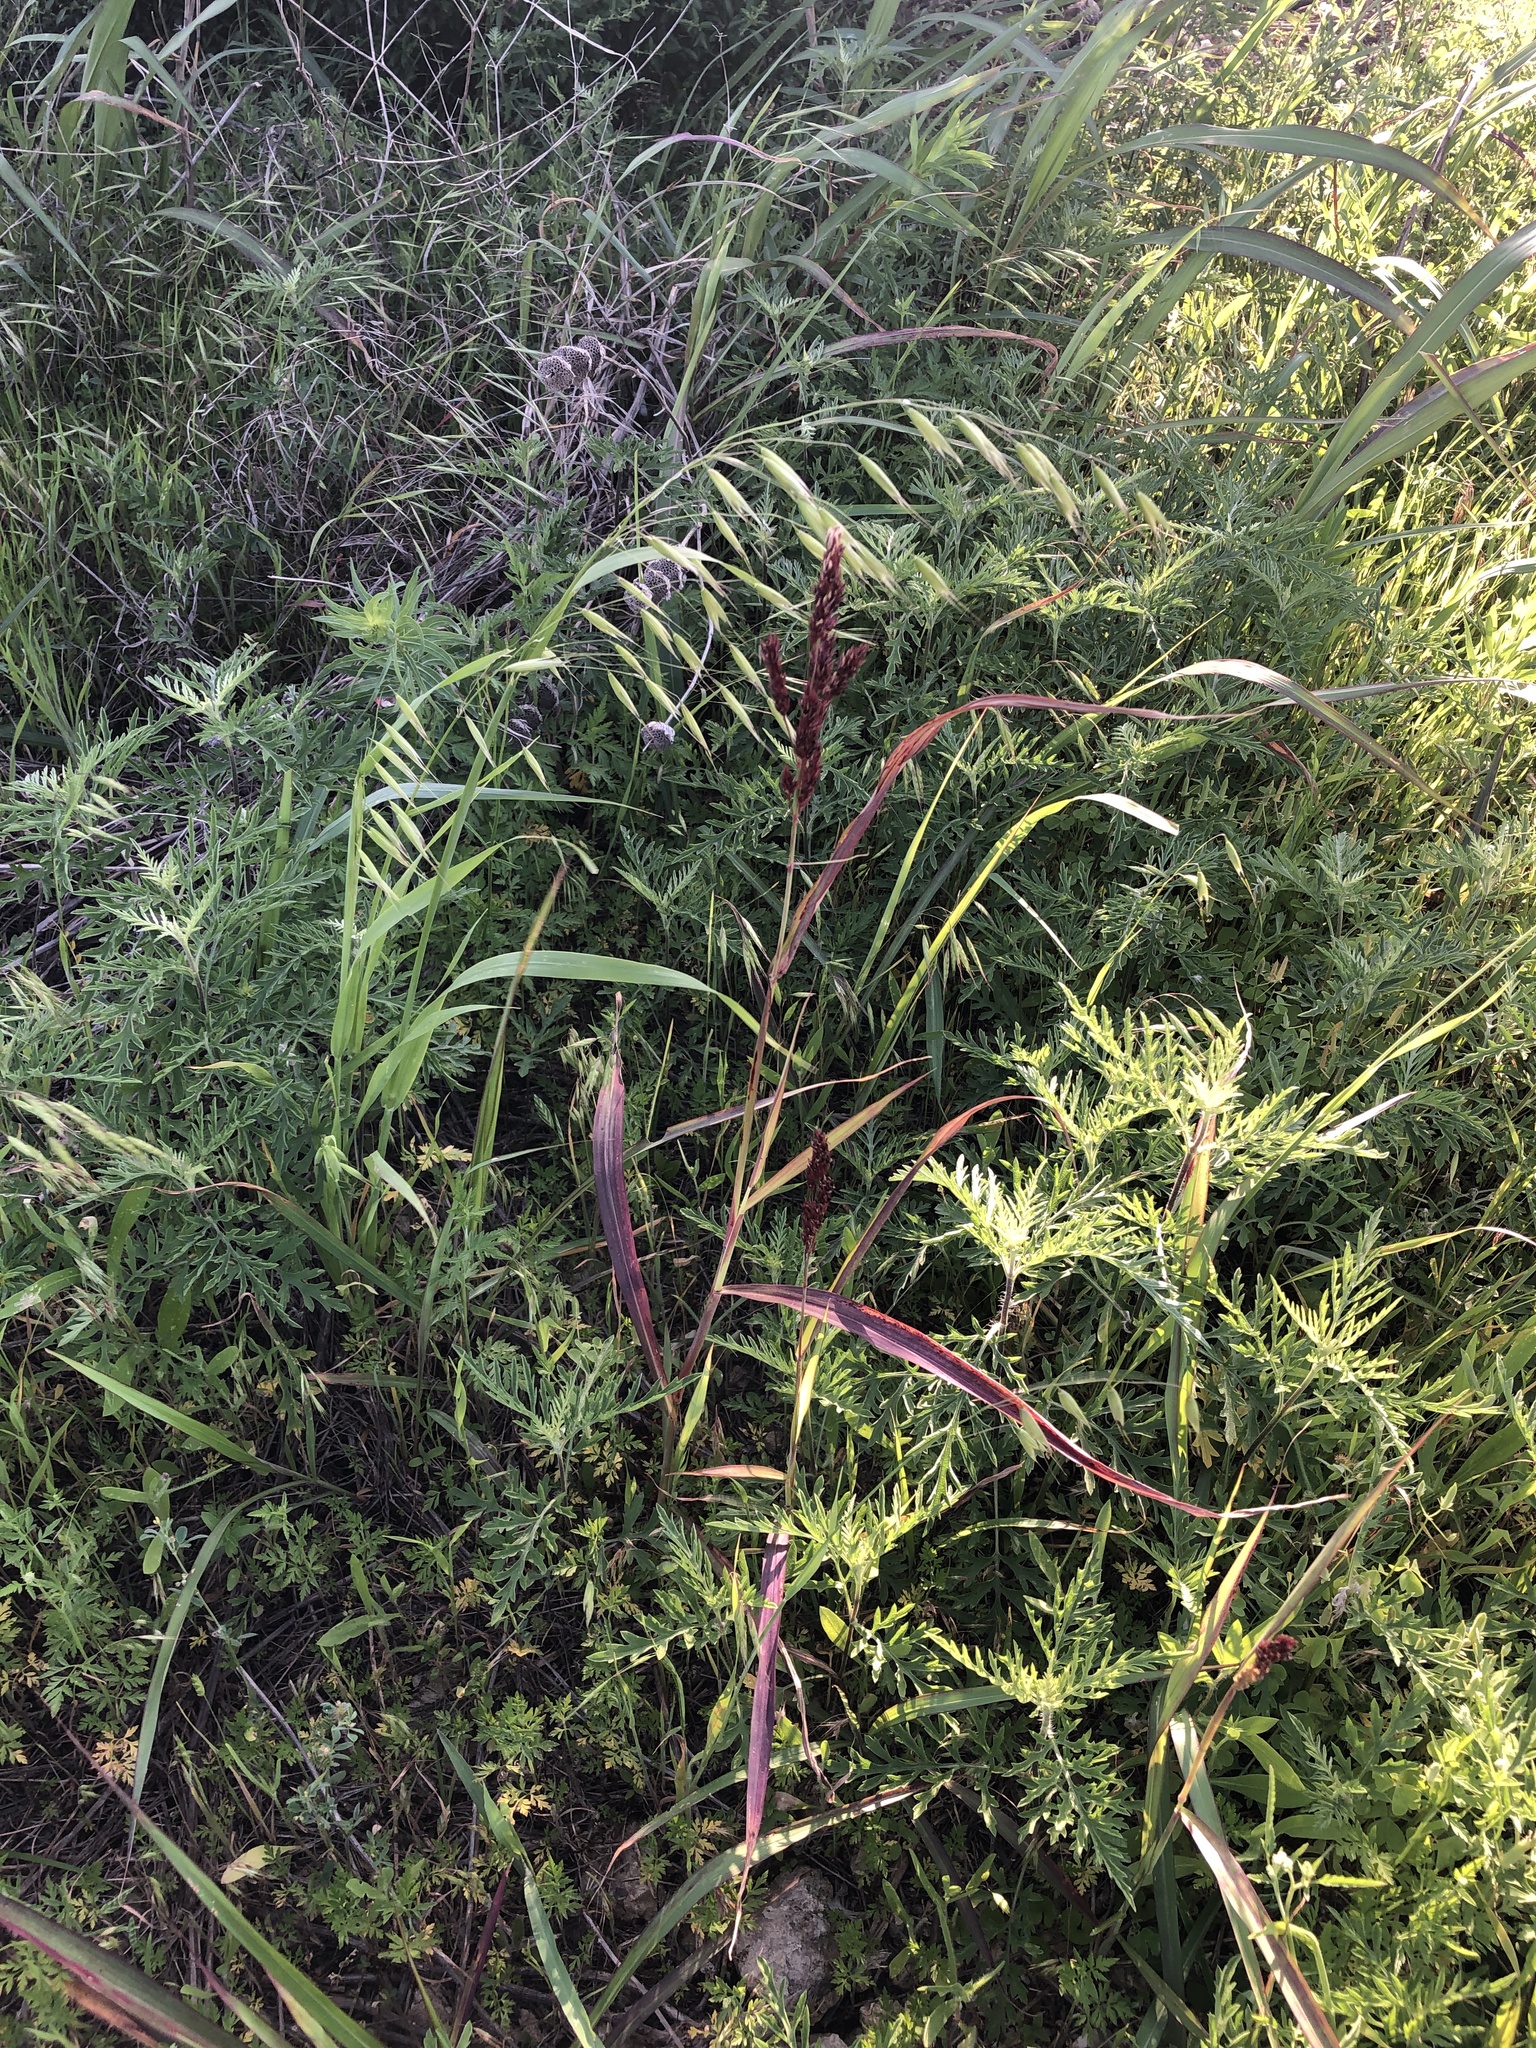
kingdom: Plantae
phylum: Tracheophyta
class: Liliopsida
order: Poales
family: Poaceae
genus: Sorghum
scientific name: Sorghum halepense
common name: Johnson-grass
